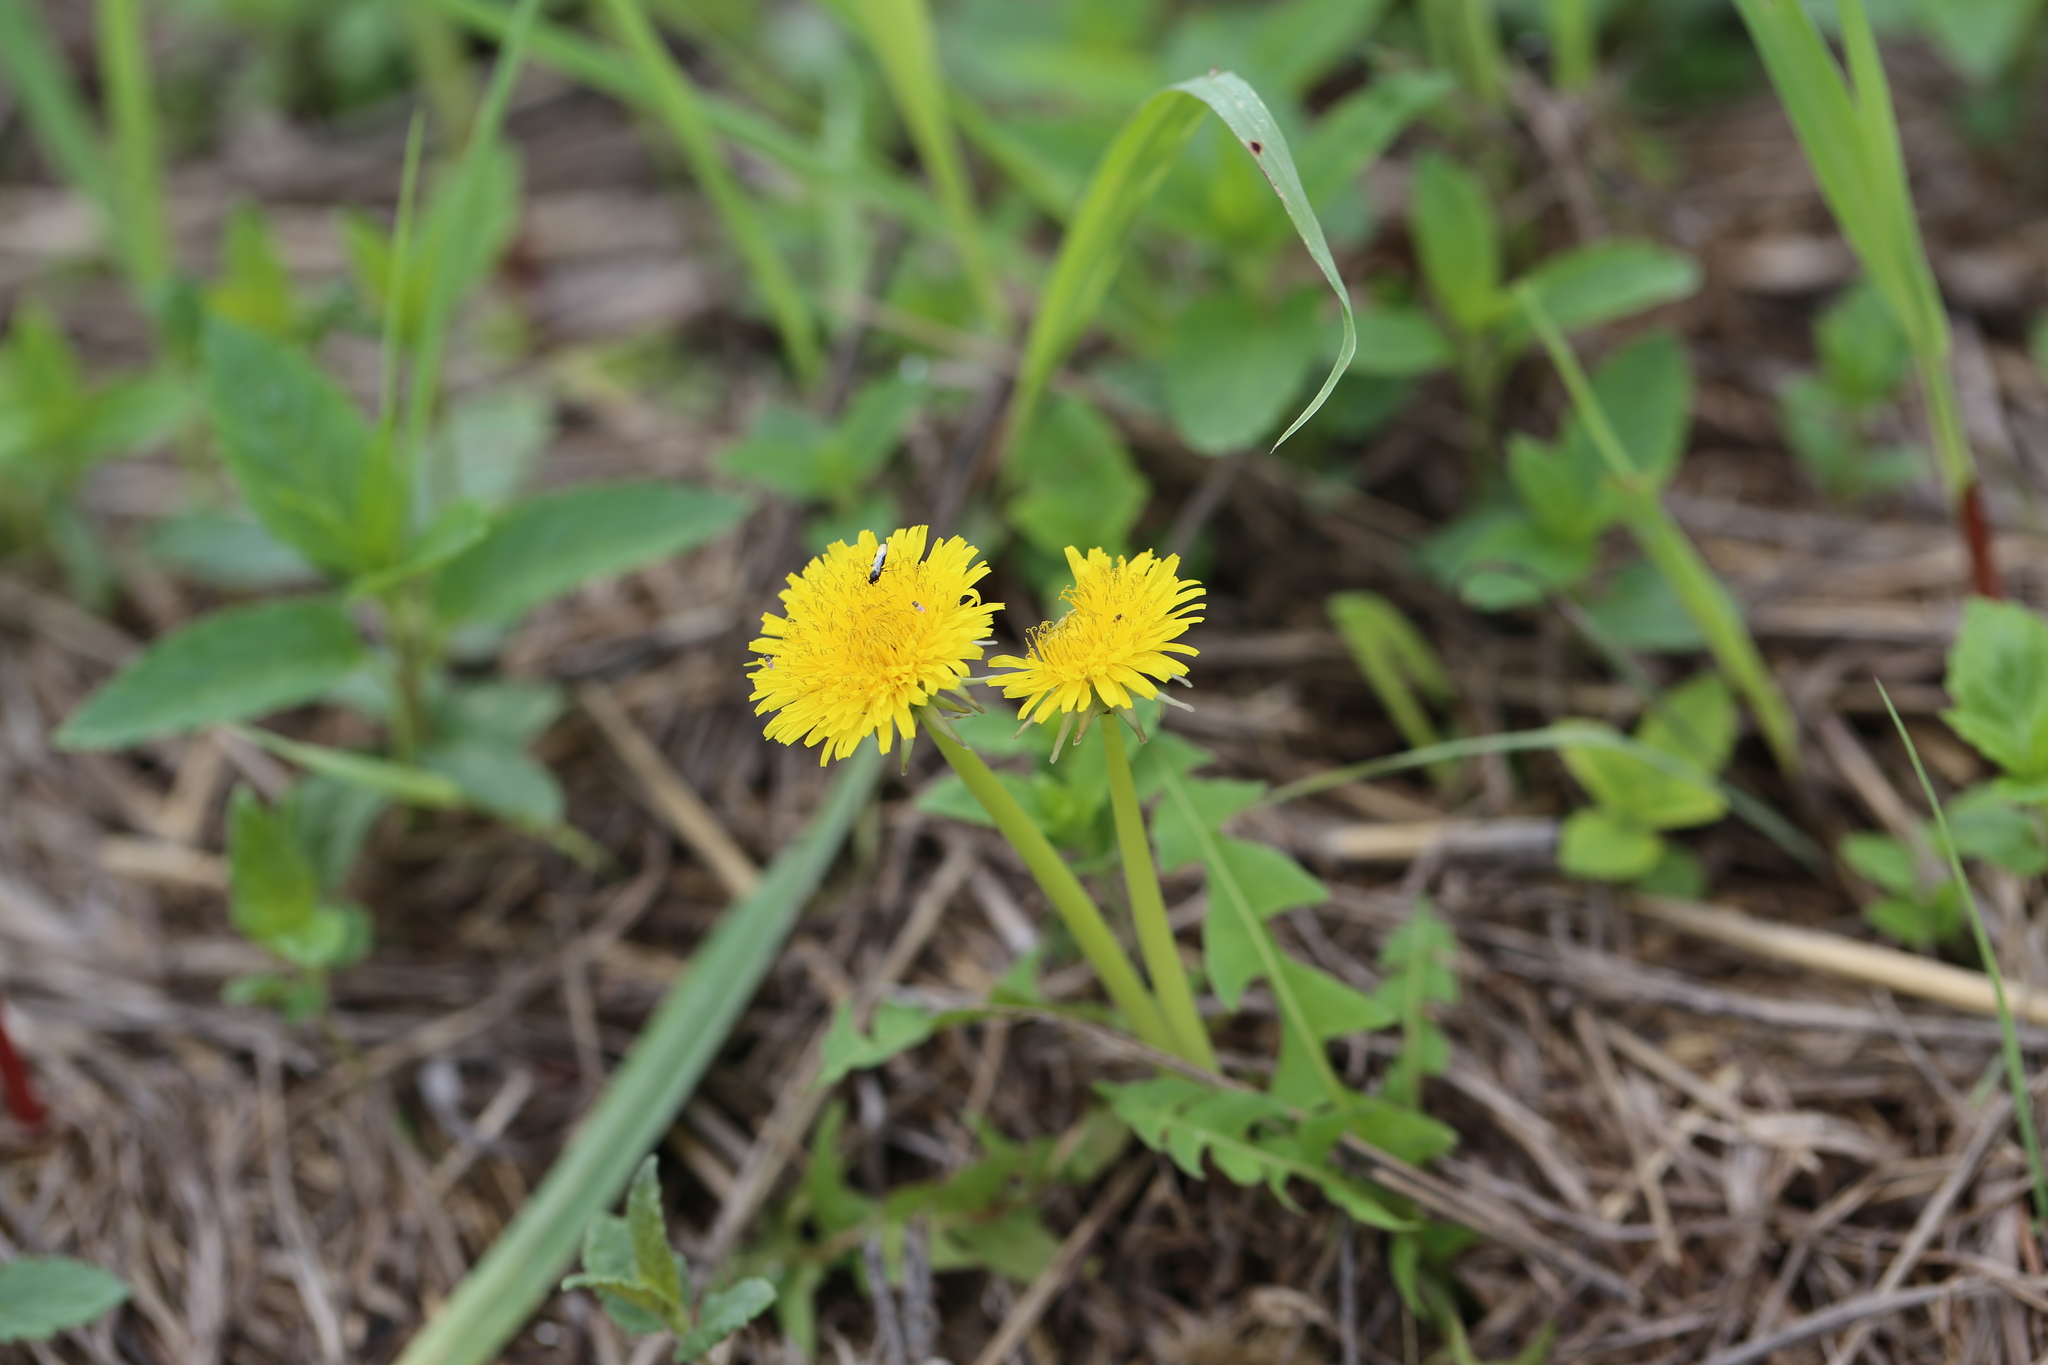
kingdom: Plantae
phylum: Tracheophyta
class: Magnoliopsida
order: Asterales
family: Asteraceae
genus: Taraxacum
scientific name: Taraxacum officinale
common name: Common dandelion
